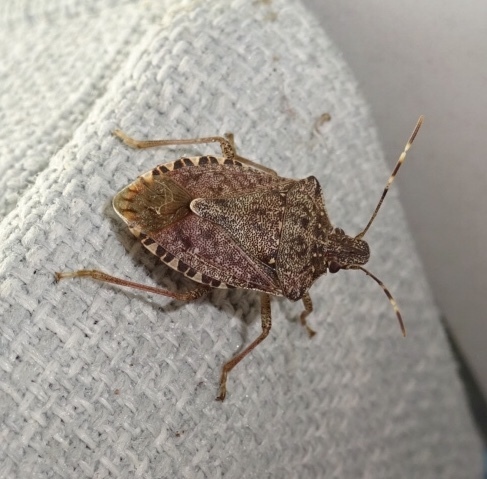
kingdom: Animalia
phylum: Arthropoda
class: Insecta
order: Hemiptera
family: Pentatomidae
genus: Halyomorpha
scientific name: Halyomorpha halys
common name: Brown marmorated stink bug
